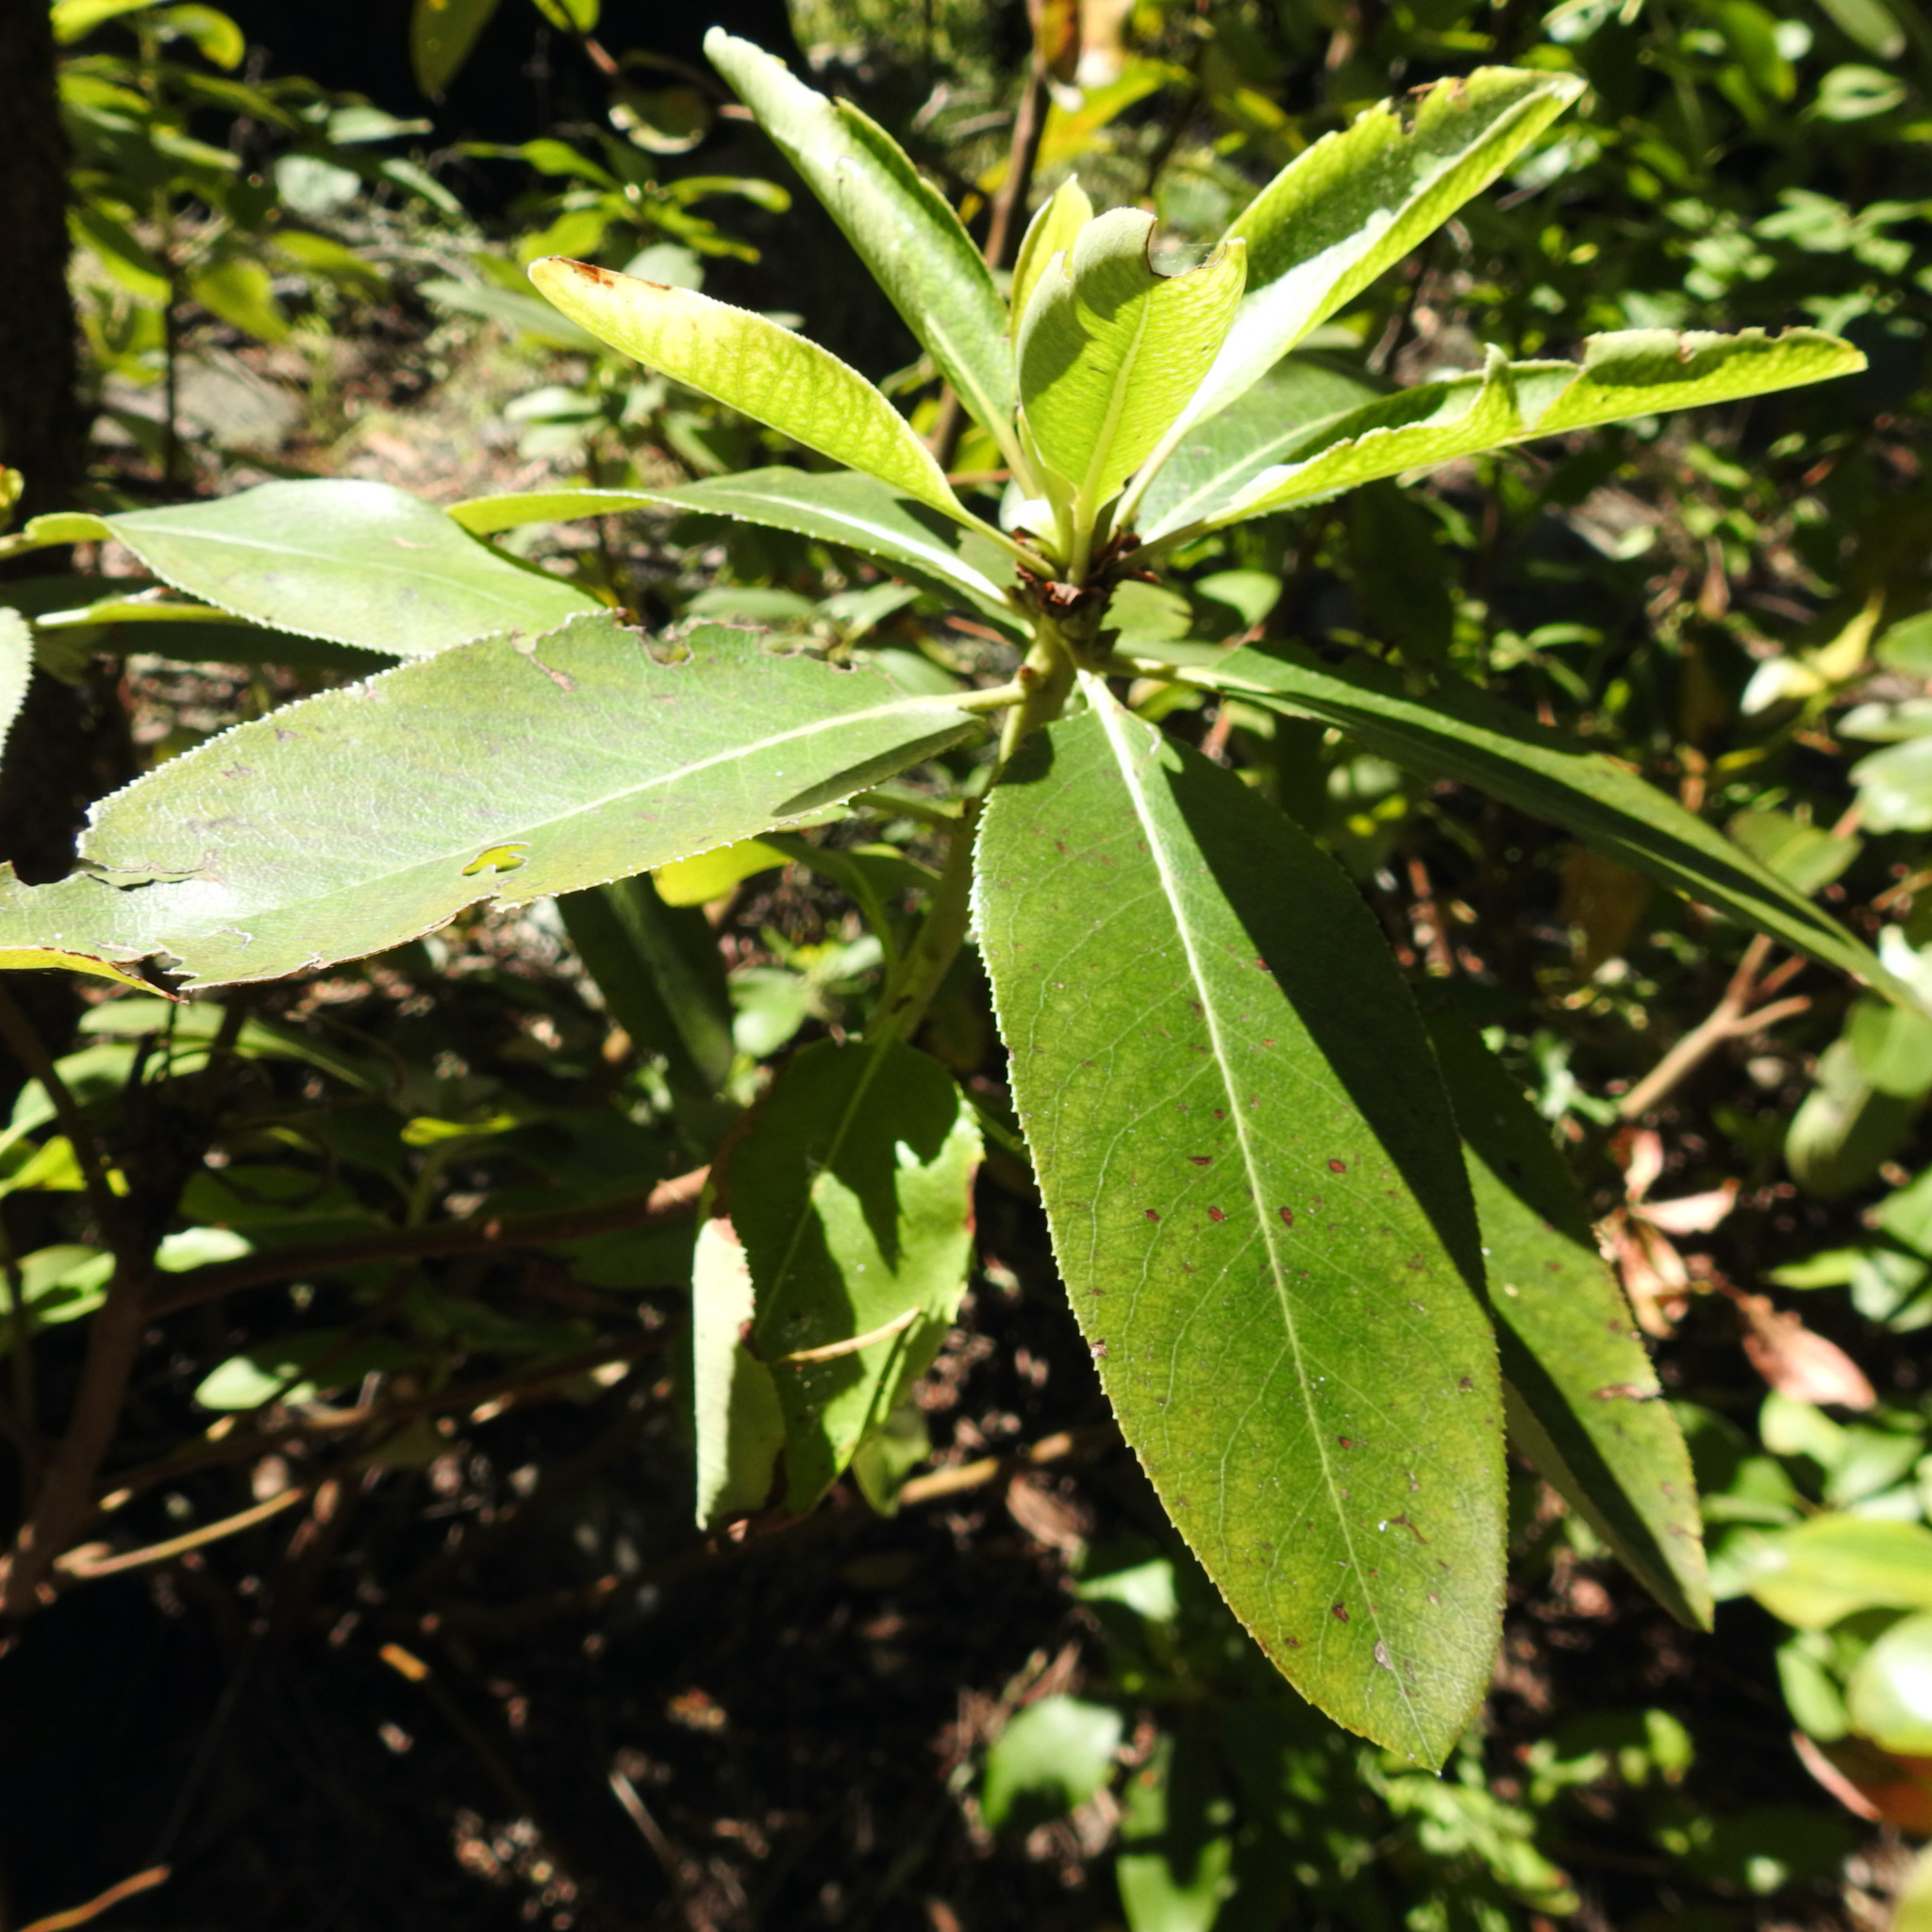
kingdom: Plantae
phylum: Tracheophyta
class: Magnoliopsida
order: Ericales
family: Ericaceae
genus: Arbutus
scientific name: Arbutus menziesii
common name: Pacific madrone
